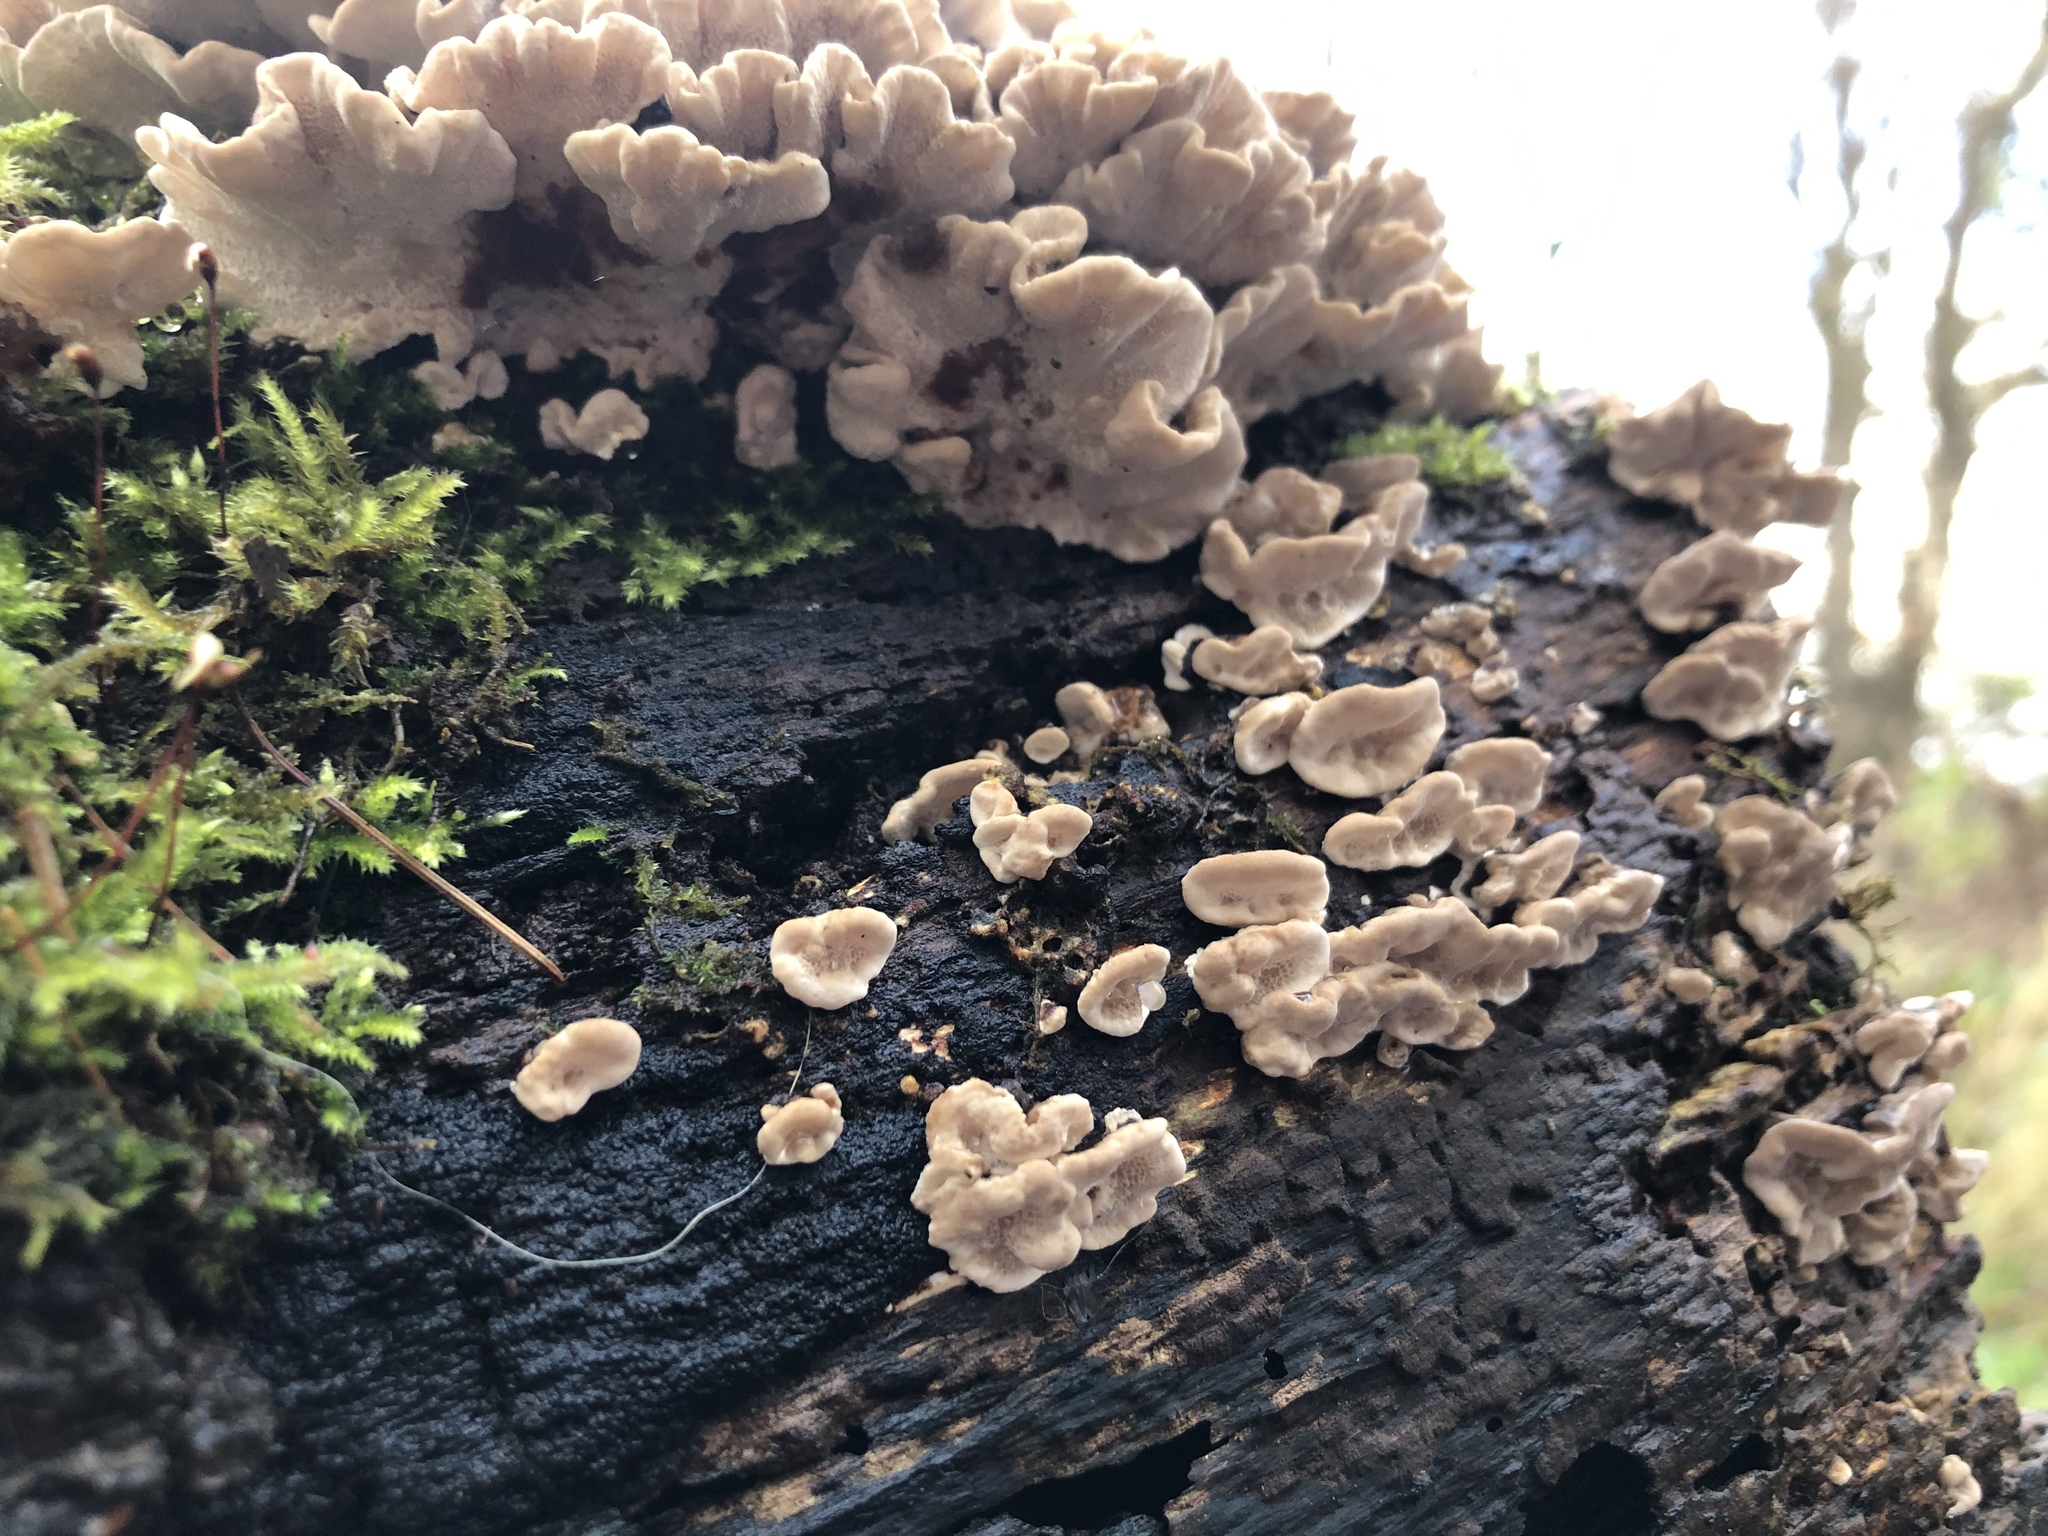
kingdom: Fungi
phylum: Basidiomycota
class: Agaricomycetes
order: Polyporales
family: Polyporaceae
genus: Trametes
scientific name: Trametes versicolor
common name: Turkeytail
